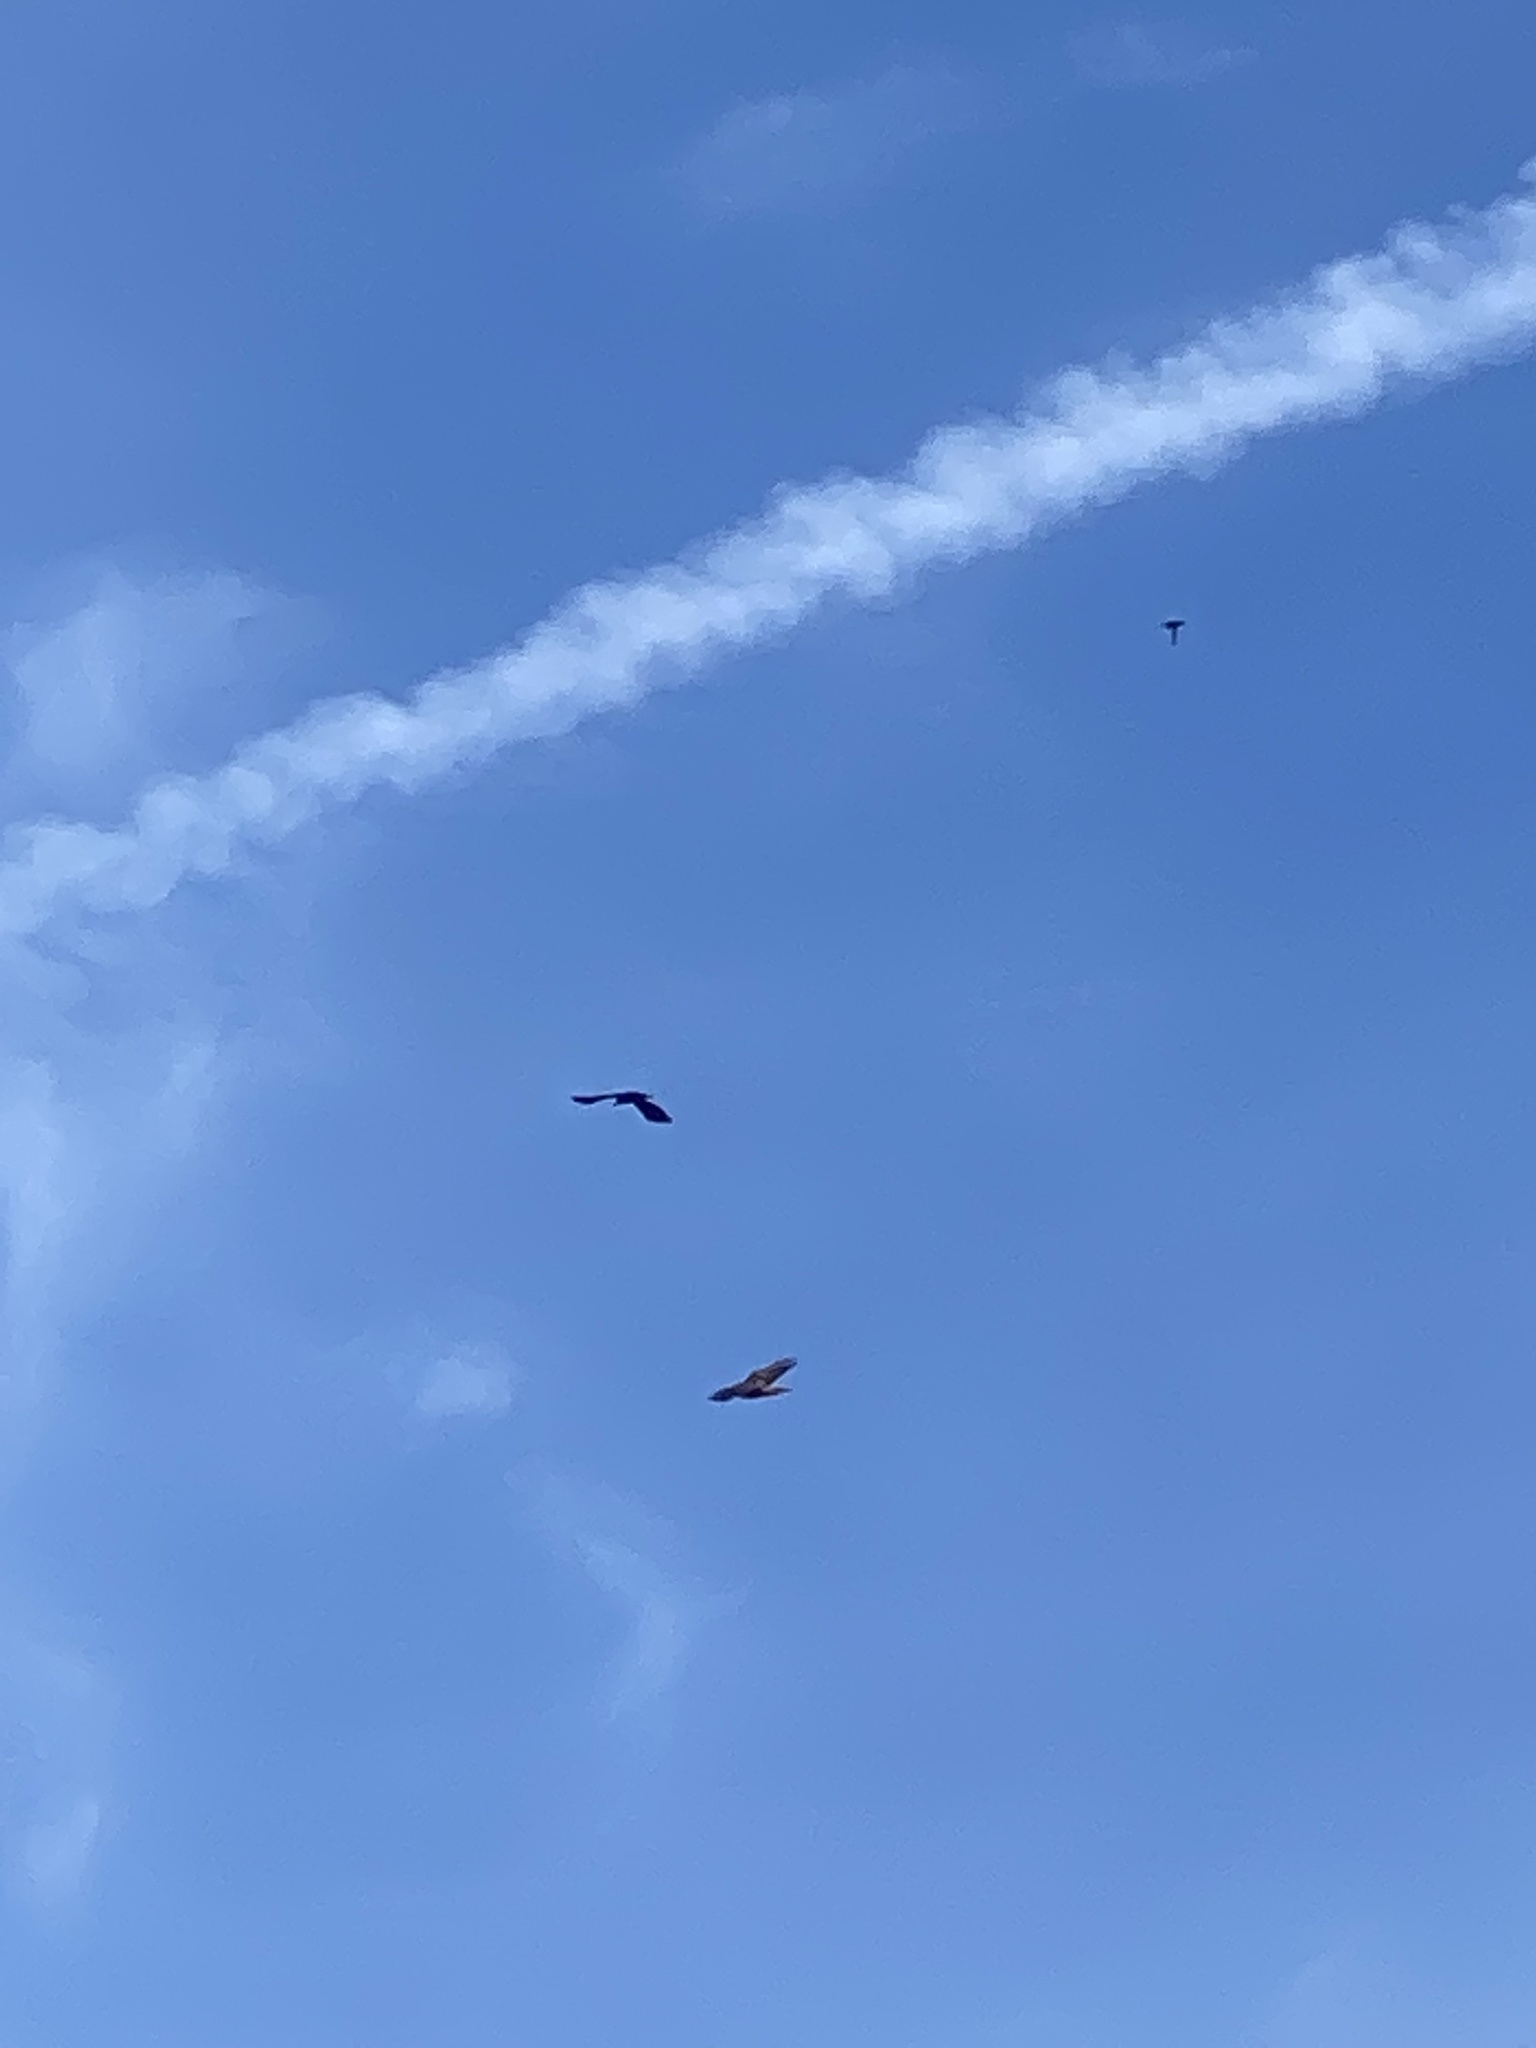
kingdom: Animalia
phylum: Chordata
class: Aves
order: Accipitriformes
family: Accipitridae
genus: Buteo
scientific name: Buteo jamaicensis
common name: Red-tailed hawk
